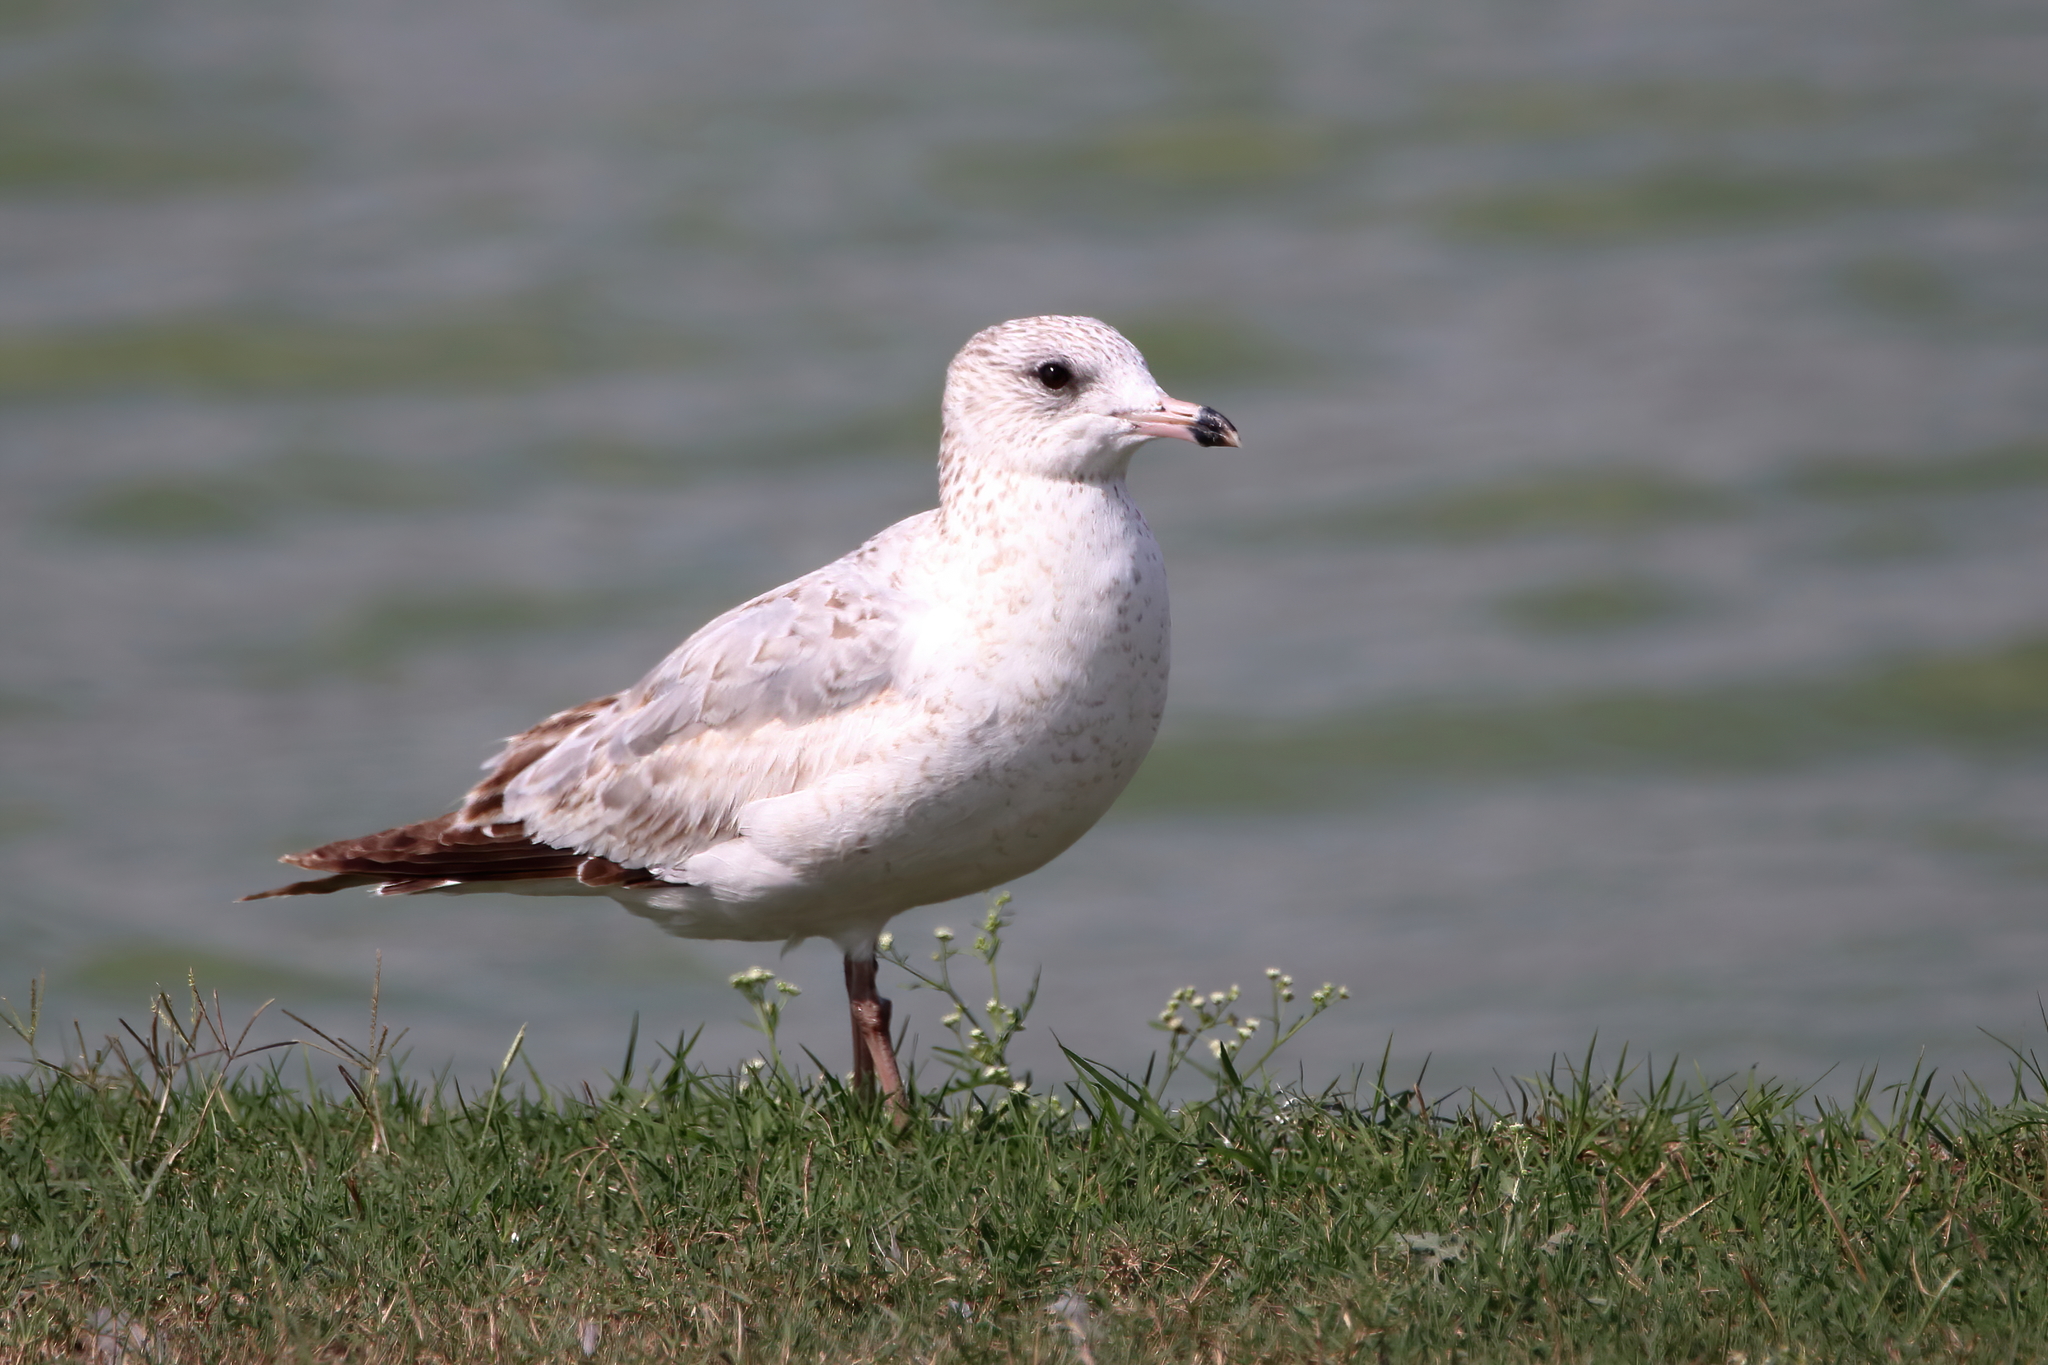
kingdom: Animalia
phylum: Chordata
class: Aves
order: Charadriiformes
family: Laridae
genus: Larus
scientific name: Larus delawarensis
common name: Ring-billed gull
